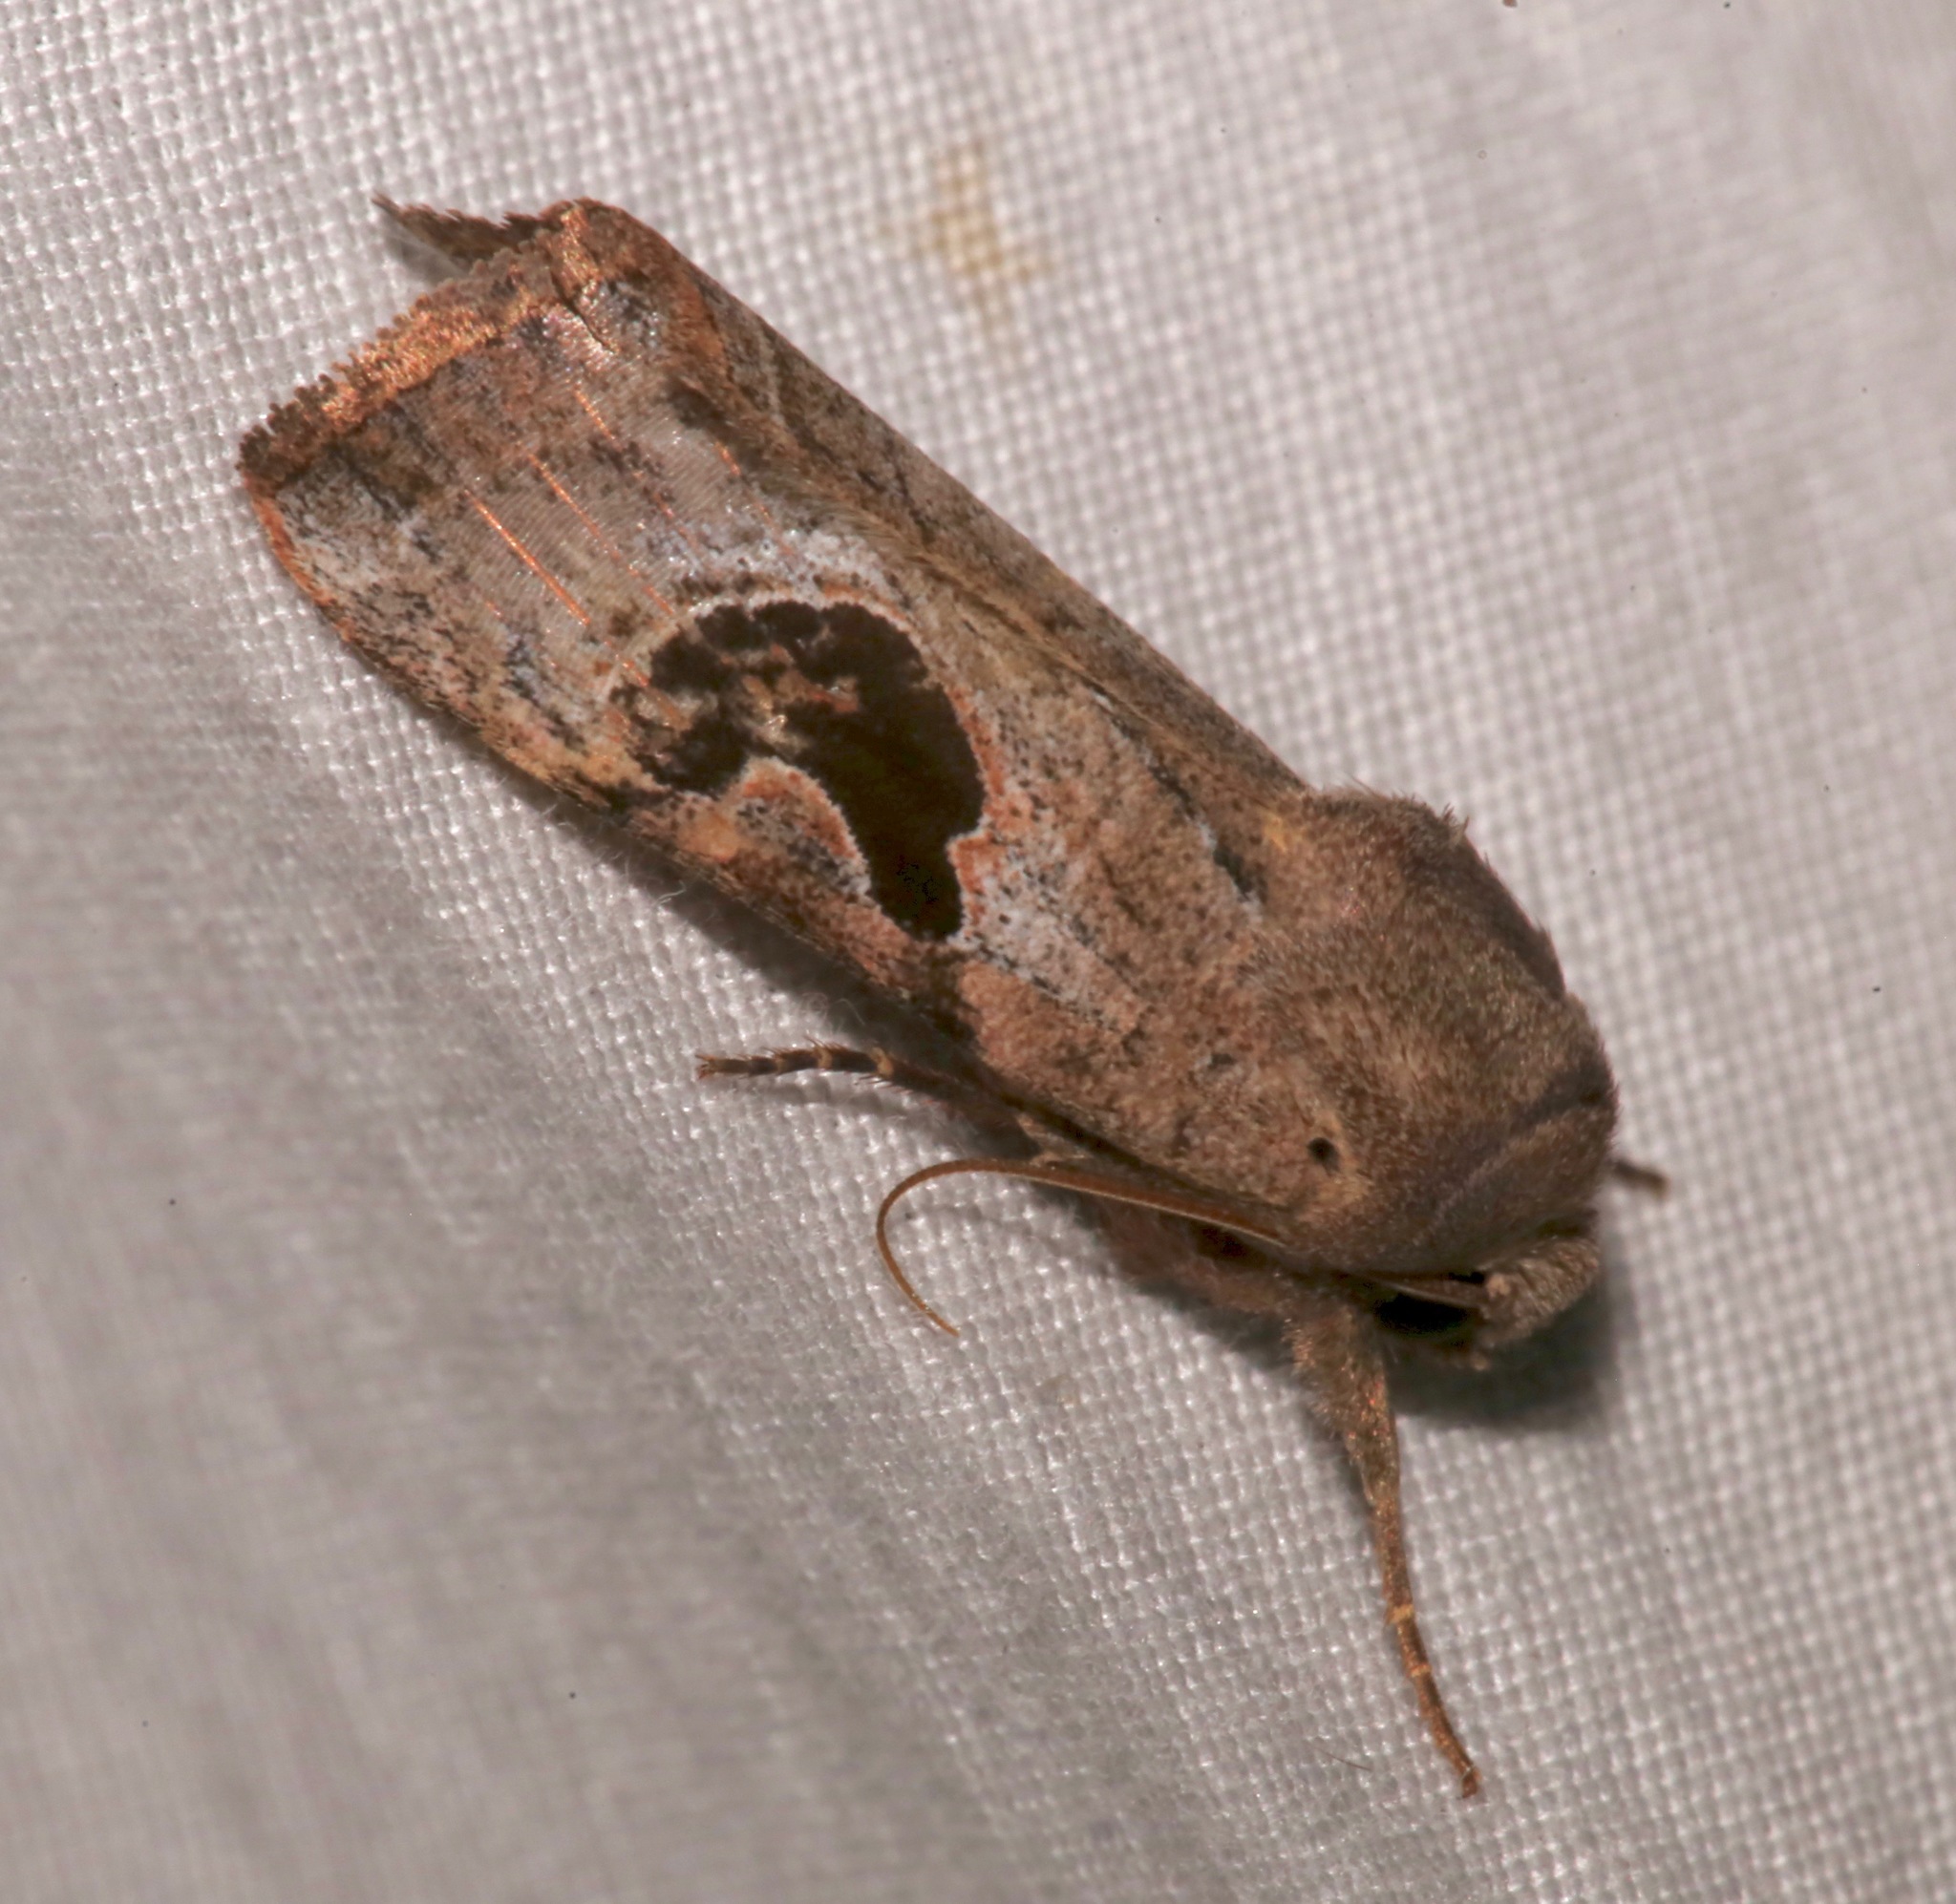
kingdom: Animalia
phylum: Arthropoda
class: Insecta
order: Lepidoptera
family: Noctuidae
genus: Eriopyga
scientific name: Eriopyga lunata
